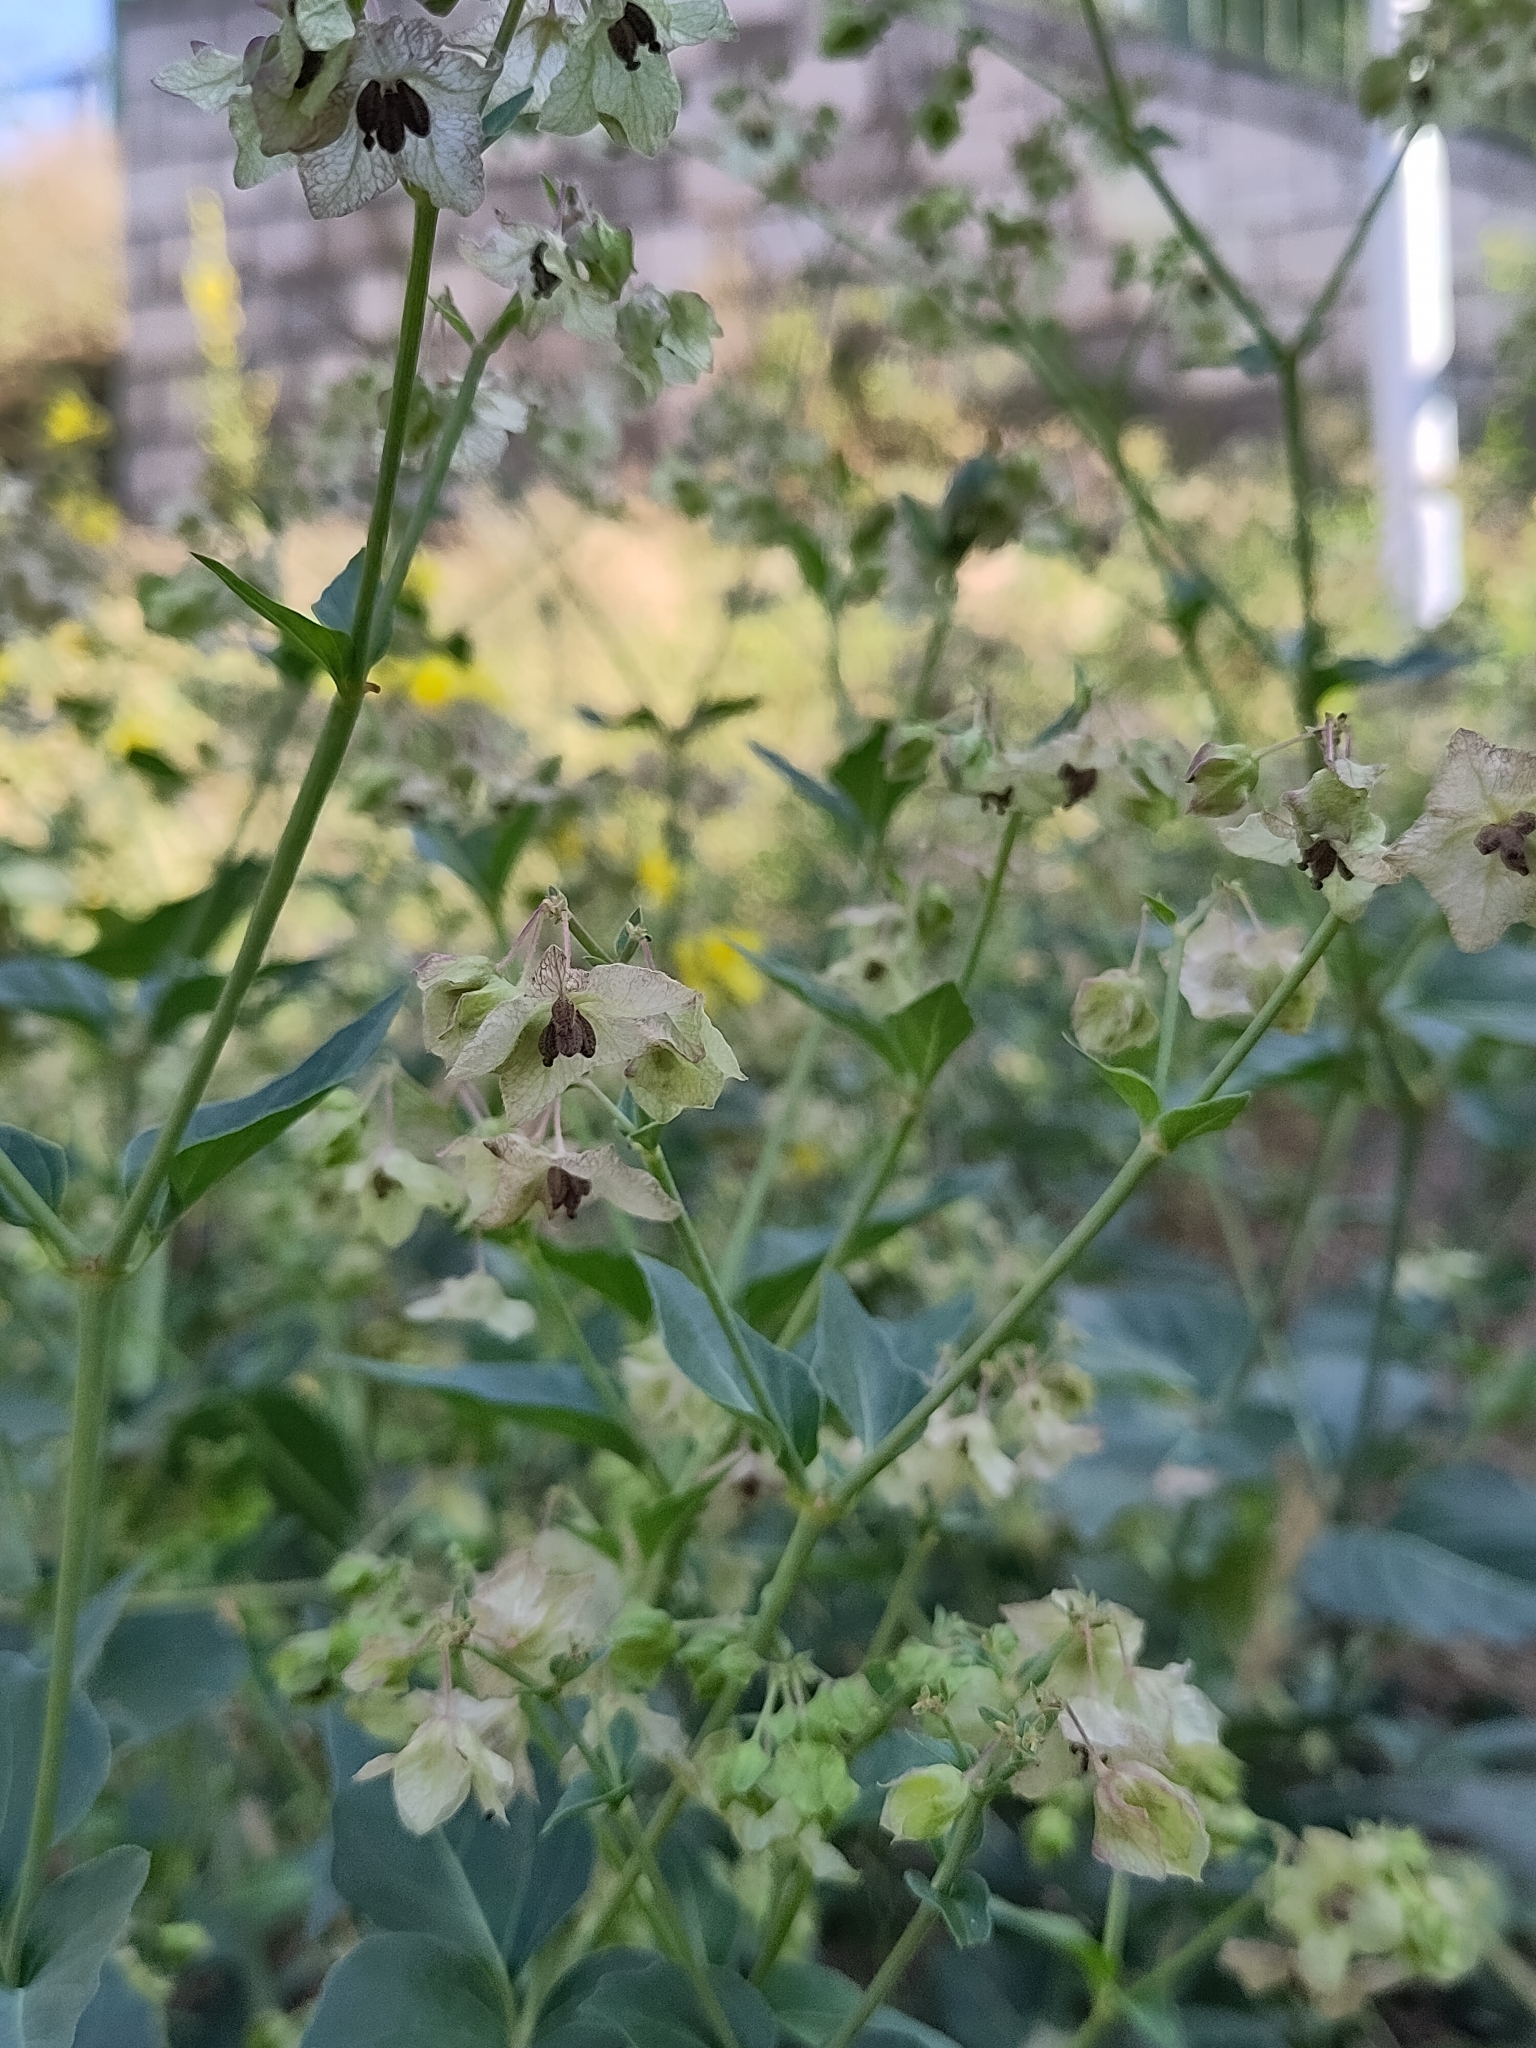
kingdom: Plantae
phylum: Tracheophyta
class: Magnoliopsida
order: Caryophyllales
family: Nyctaginaceae
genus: Mirabilis
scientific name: Mirabilis nyctaginea
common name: Umbrella wort
